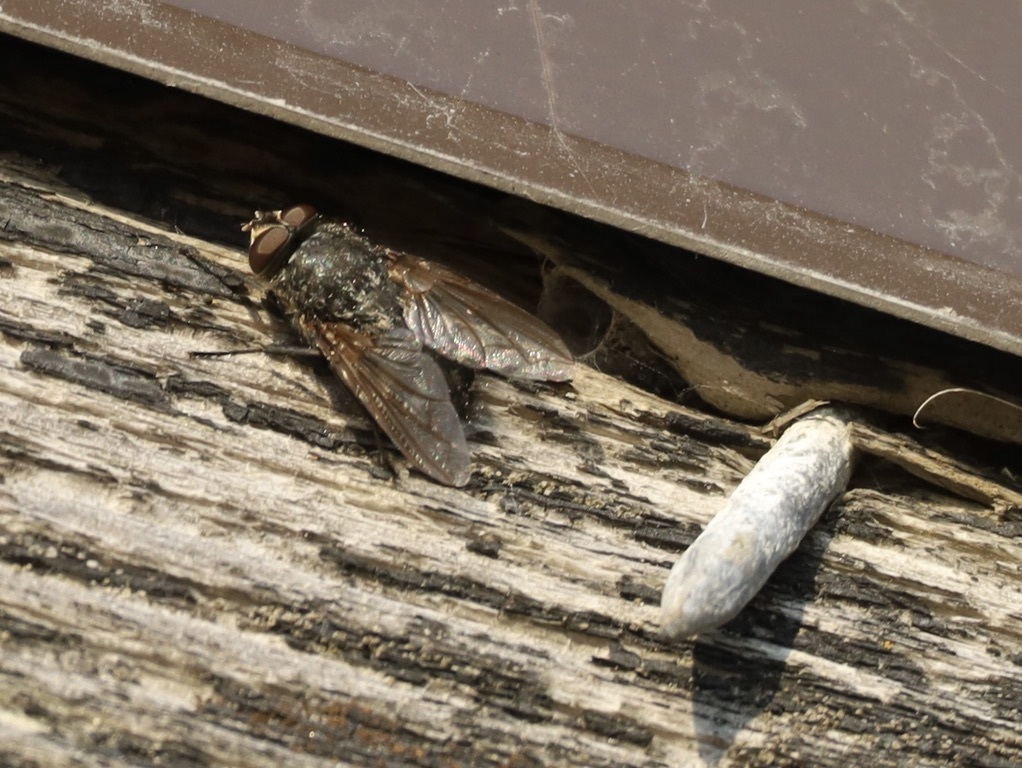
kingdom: Animalia
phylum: Arthropoda
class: Insecta
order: Diptera
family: Polleniidae
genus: Pollenia
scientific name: Pollenia
